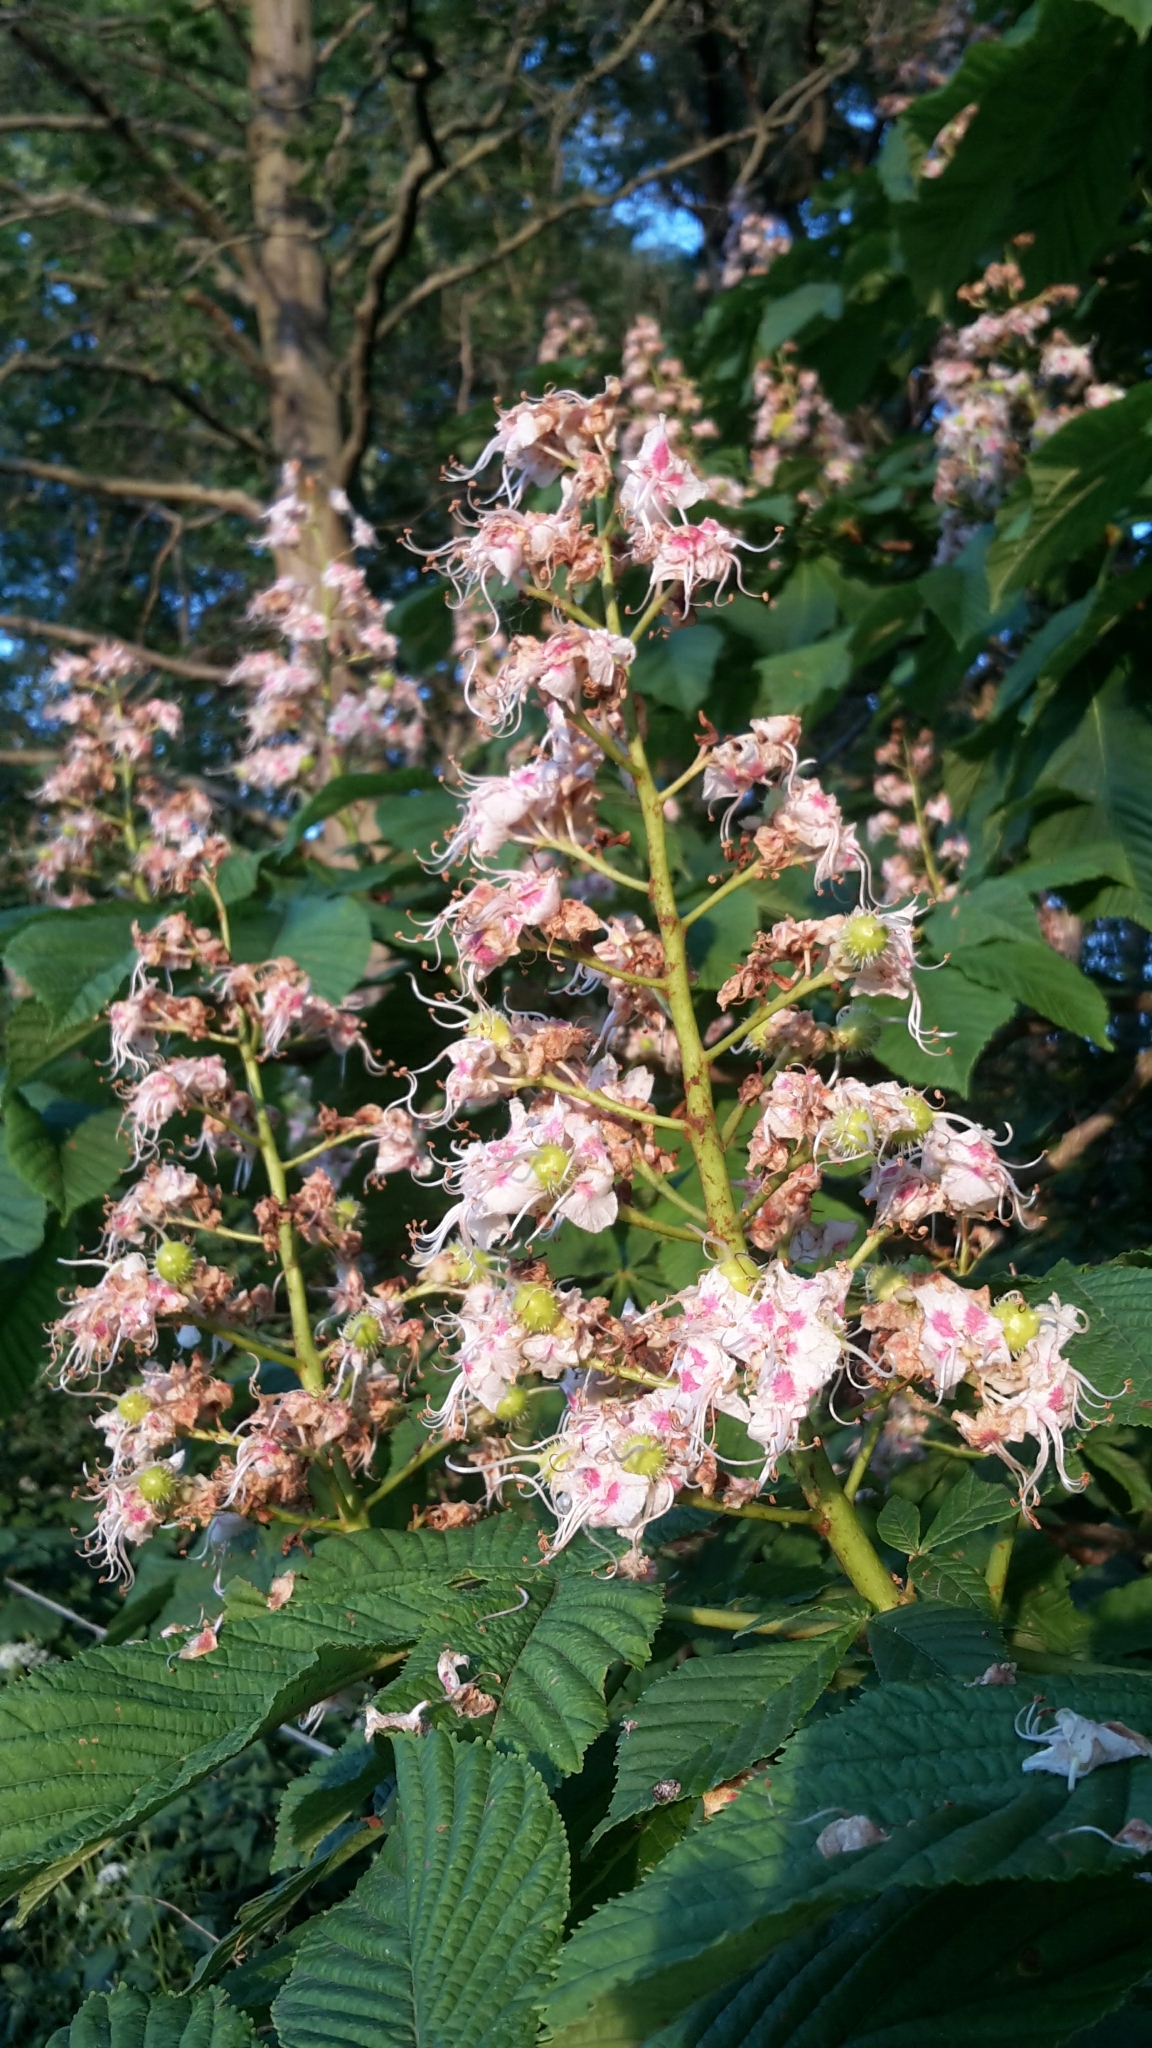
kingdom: Plantae
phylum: Tracheophyta
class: Magnoliopsida
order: Sapindales
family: Sapindaceae
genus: Aesculus
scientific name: Aesculus hippocastanum
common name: Horse-chestnut
